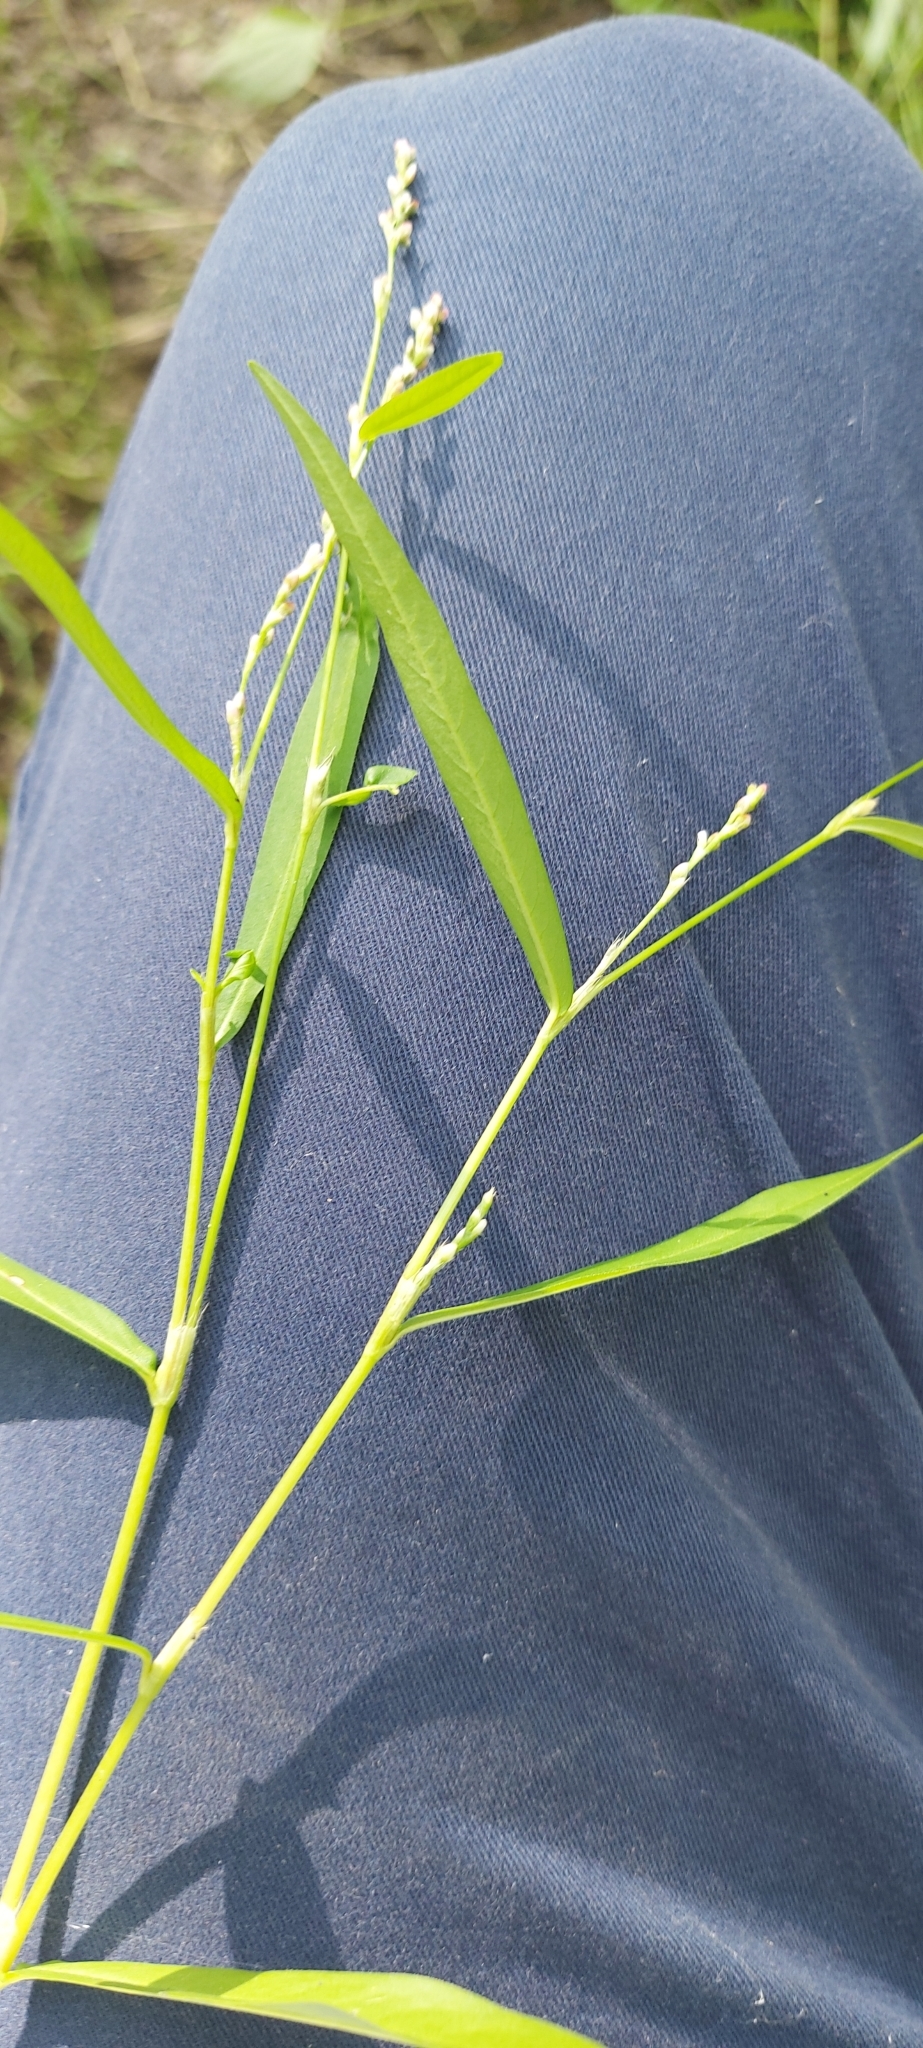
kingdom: Plantae
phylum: Tracheophyta
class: Magnoliopsida
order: Caryophyllales
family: Polygonaceae
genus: Persicaria
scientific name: Persicaria minor
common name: Small water-pepper
